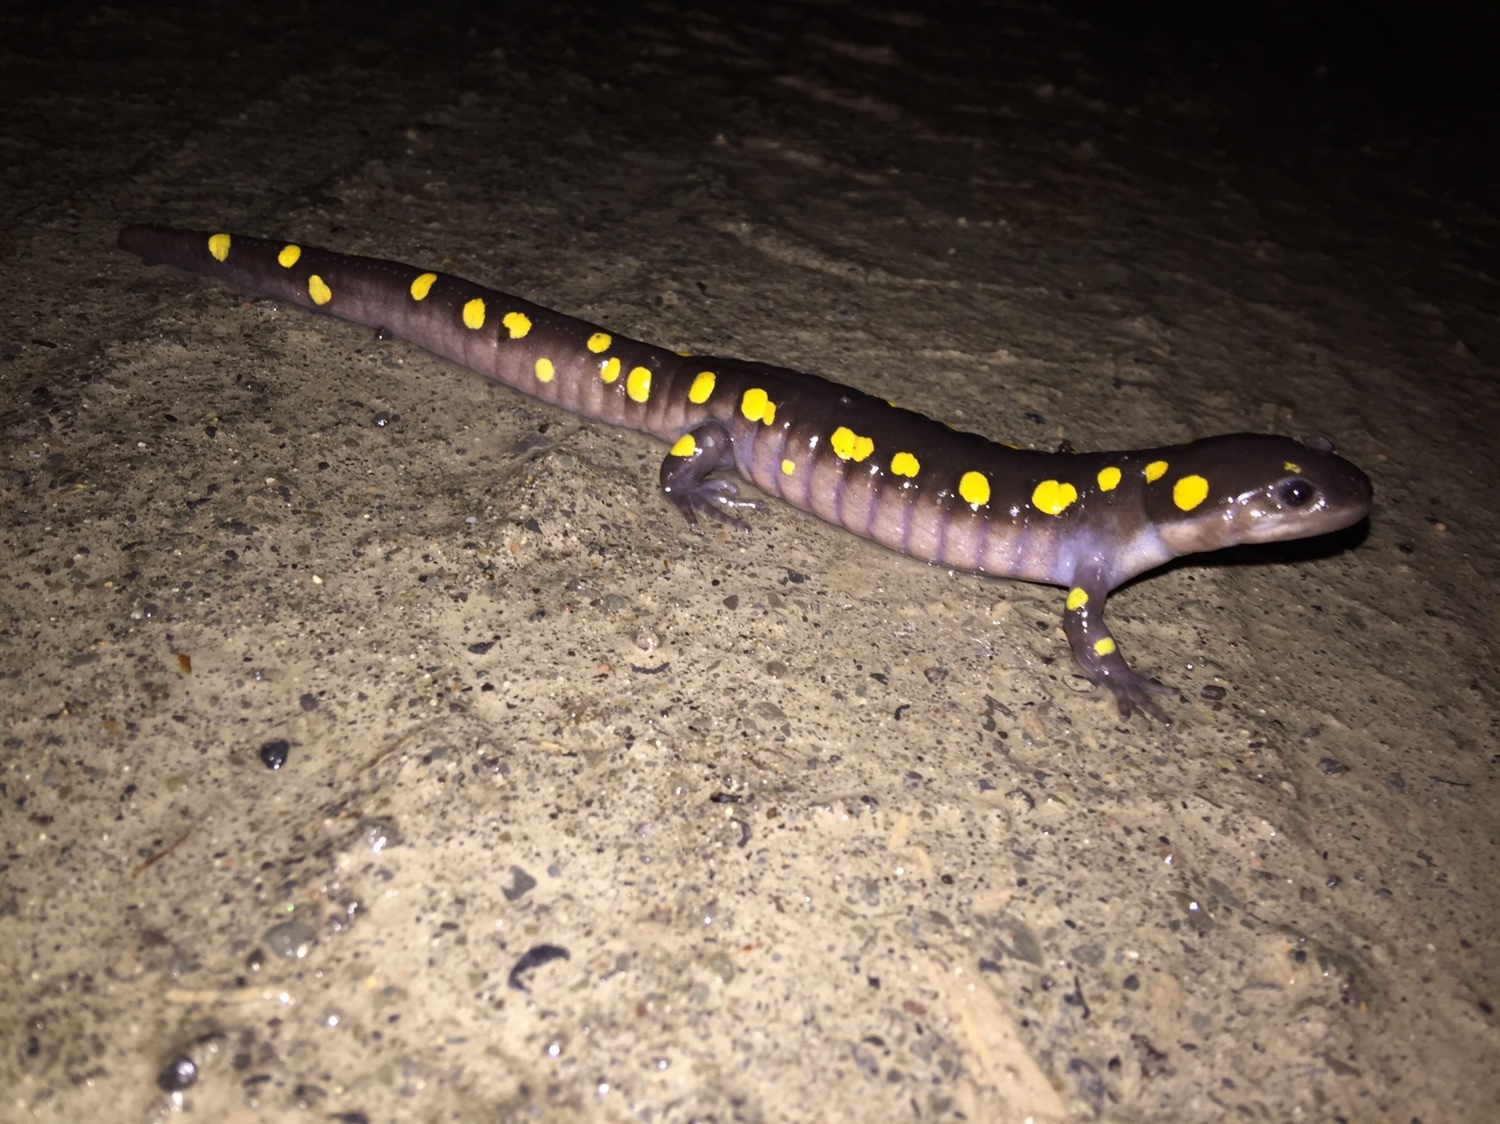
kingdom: Animalia
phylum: Chordata
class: Amphibia
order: Caudata
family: Ambystomatidae
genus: Ambystoma
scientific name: Ambystoma maculatum
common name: Spotted salamander
